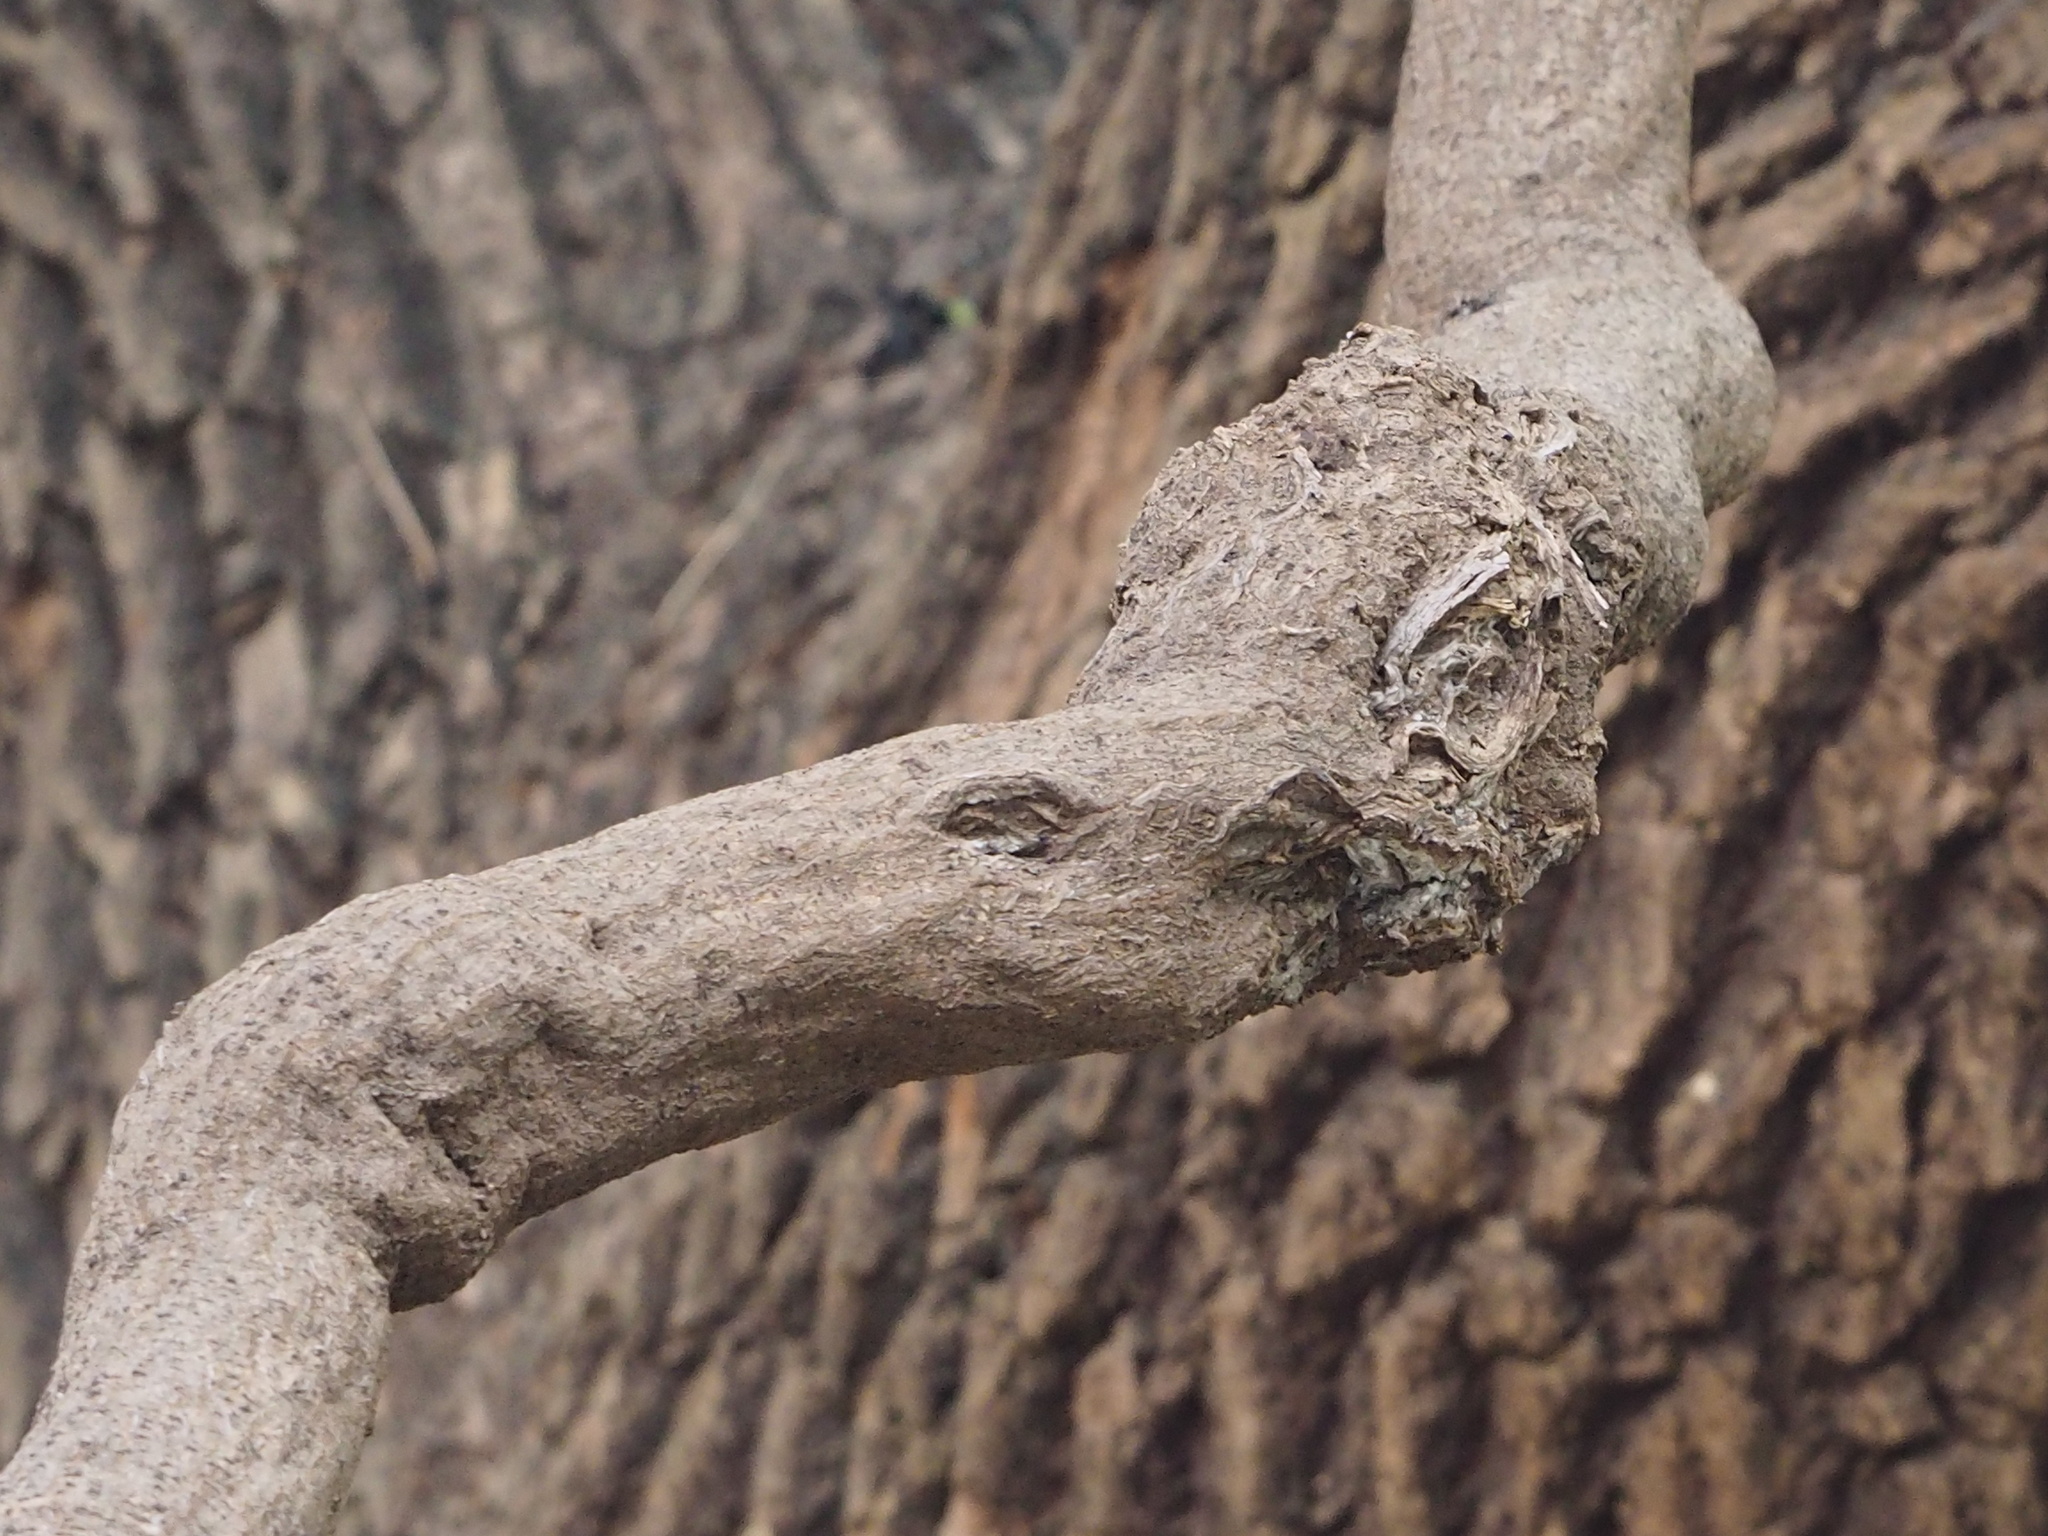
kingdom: Plantae
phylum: Tracheophyta
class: Magnoliopsida
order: Fabales
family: Fabaceae
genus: Mucuna
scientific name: Mucuna gigantea
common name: Black-bean
